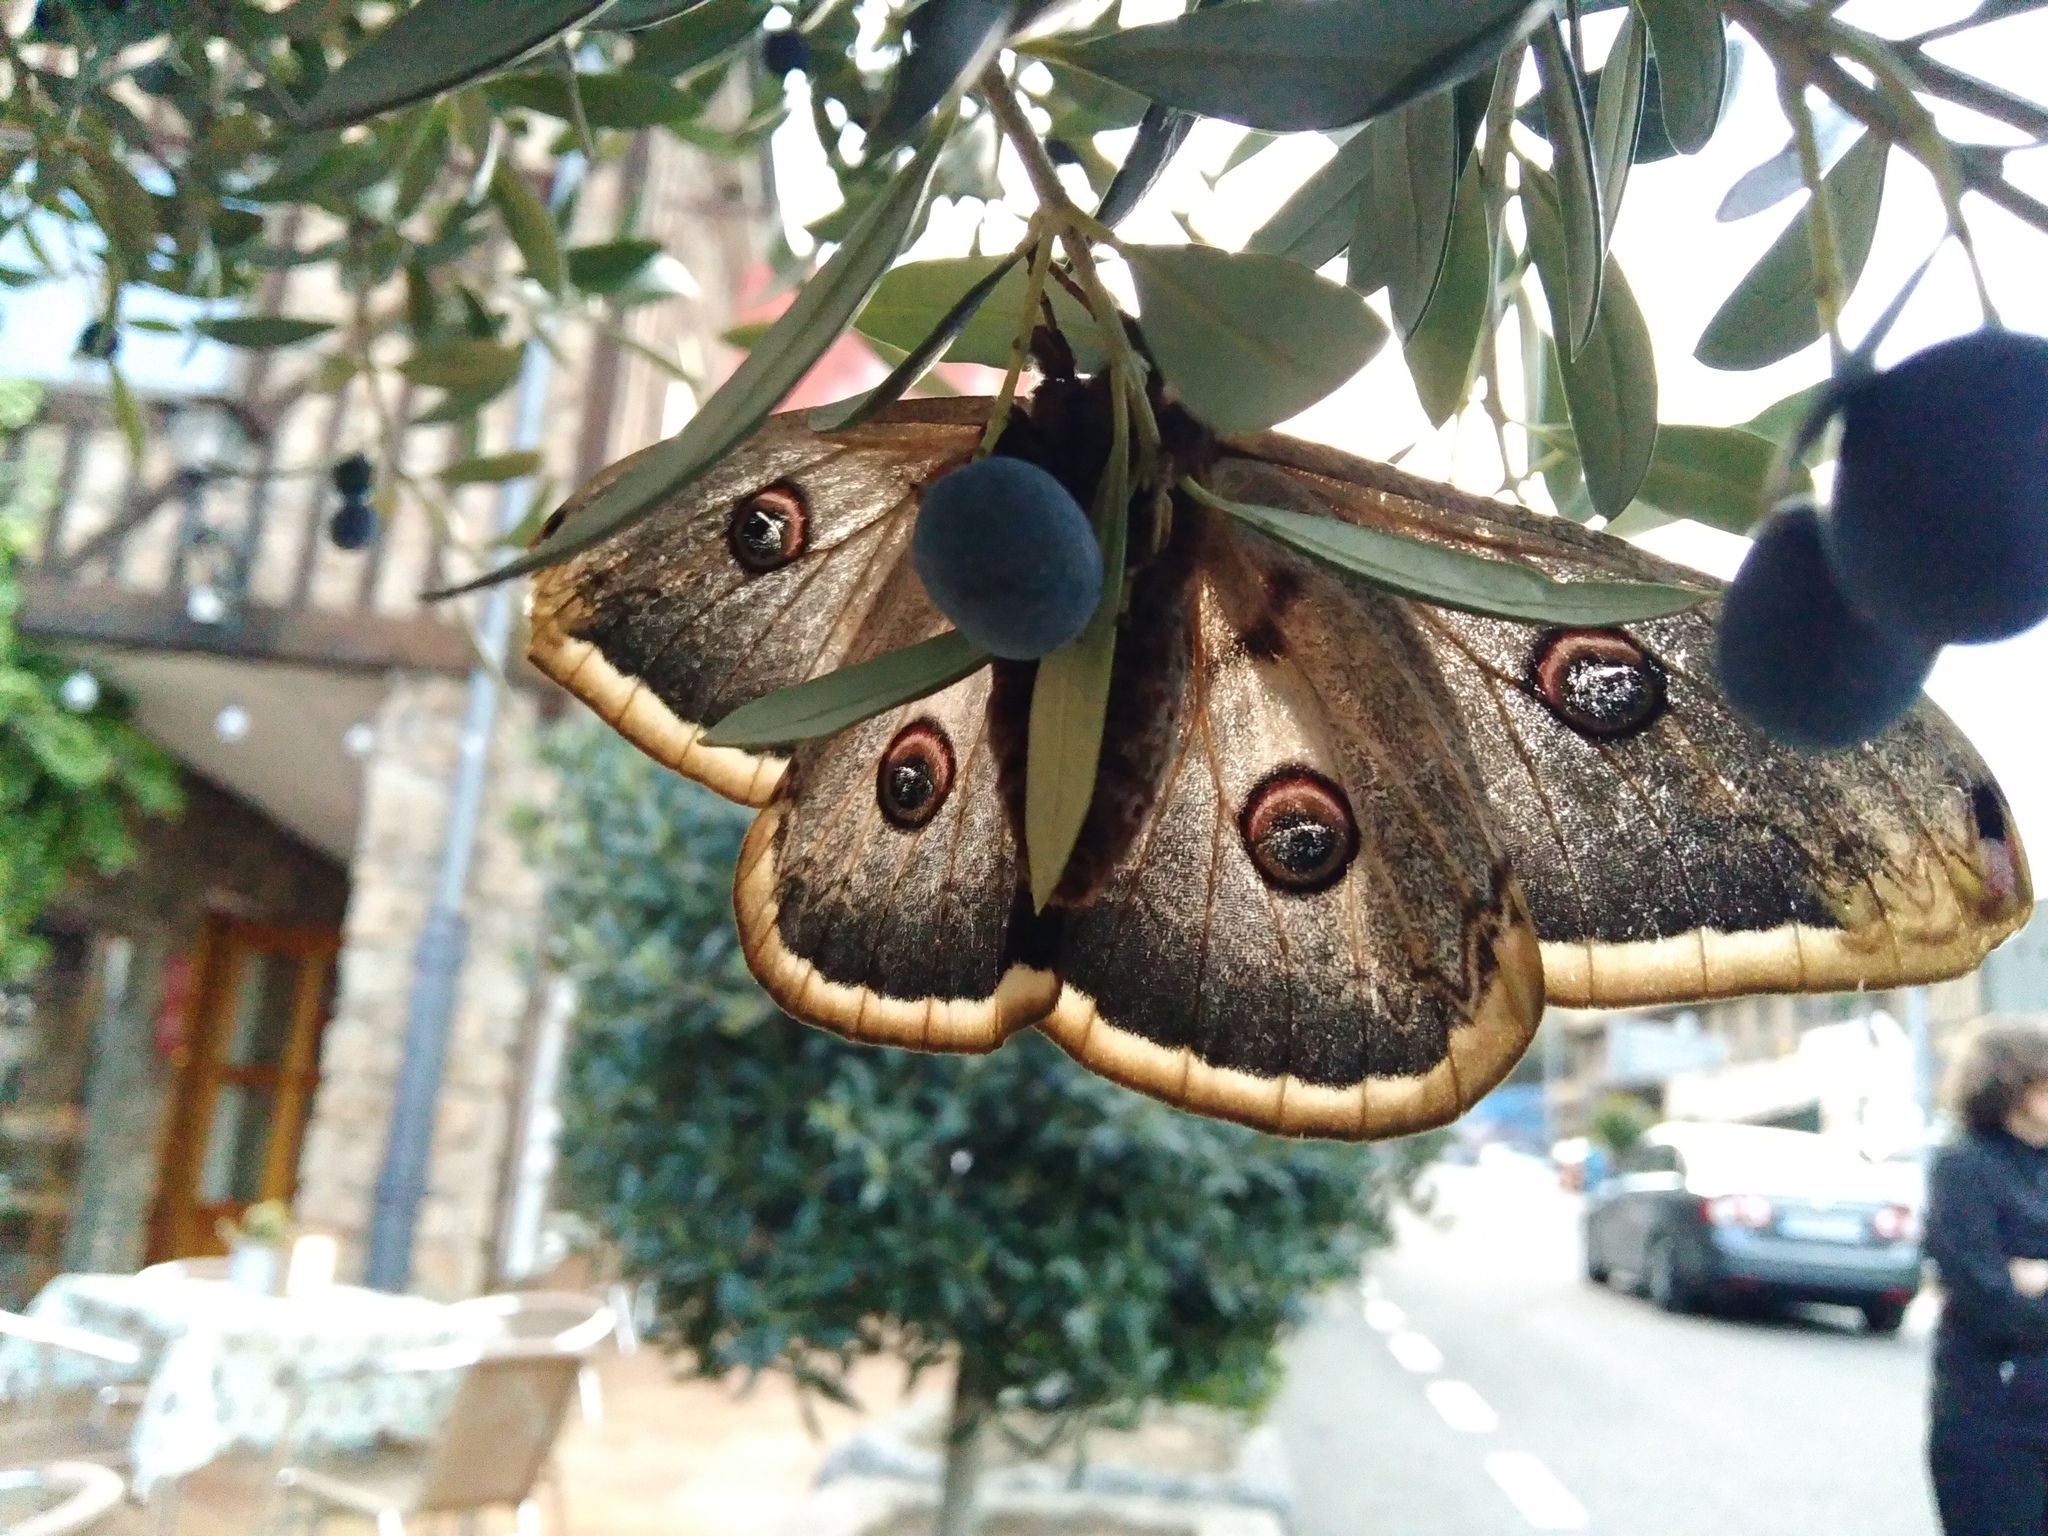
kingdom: Animalia
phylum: Arthropoda
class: Insecta
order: Lepidoptera
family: Saturniidae
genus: Saturnia
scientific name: Saturnia pyri
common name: Great peacock moth
